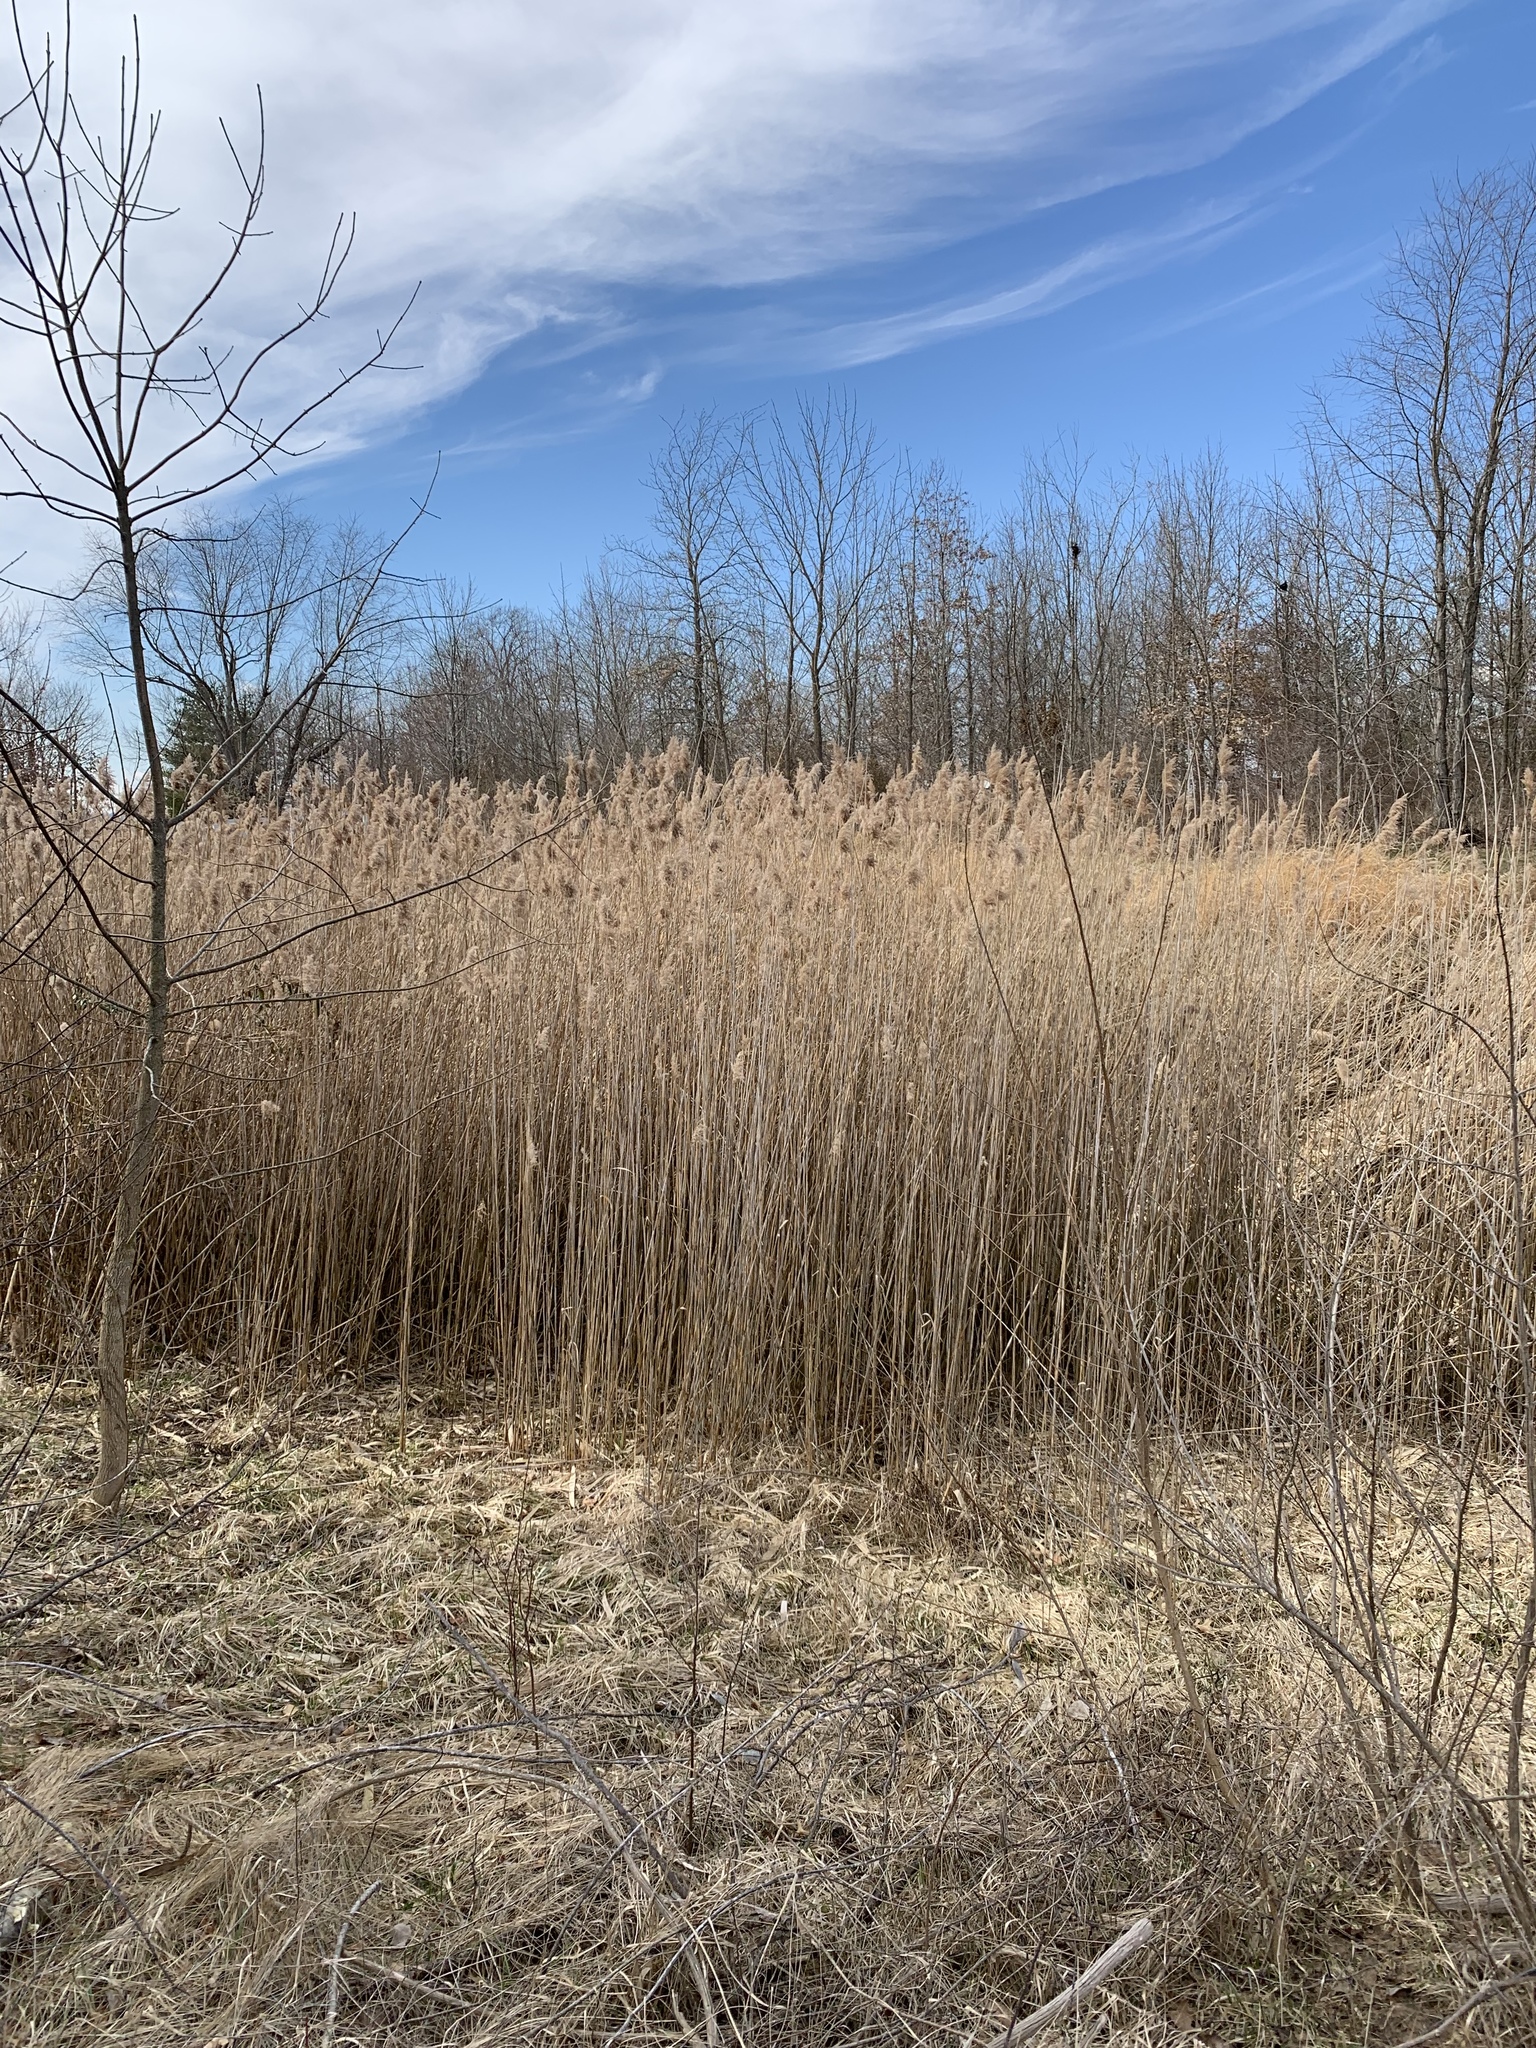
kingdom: Plantae
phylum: Tracheophyta
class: Liliopsida
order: Poales
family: Poaceae
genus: Phragmites
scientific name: Phragmites australis
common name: Common reed
